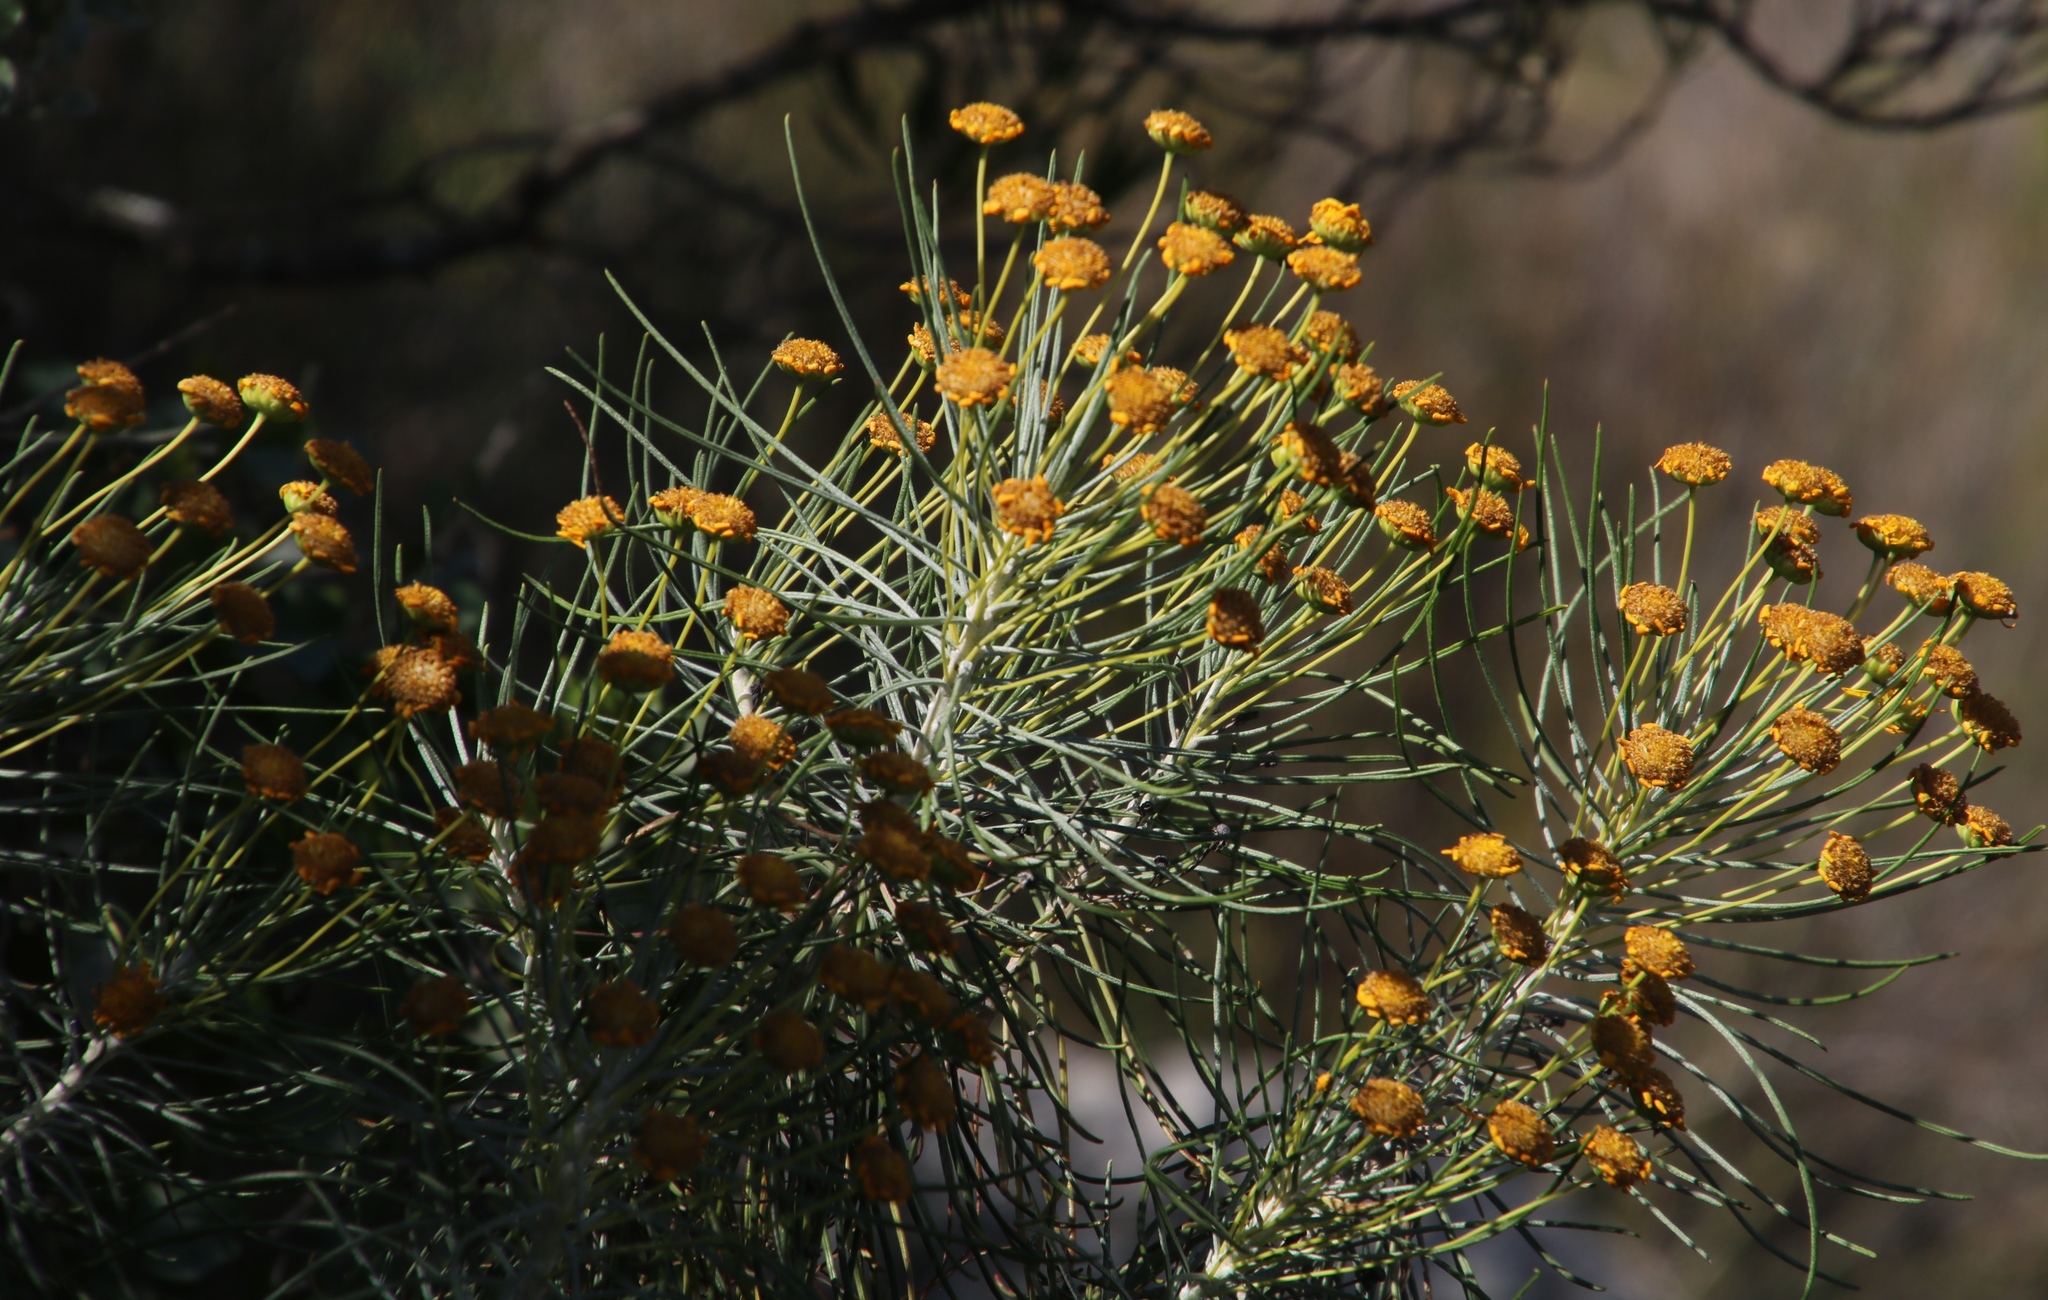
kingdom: Plantae
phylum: Tracheophyta
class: Magnoliopsida
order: Asterales
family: Asteraceae
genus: Euryops
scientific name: Euryops tenuissimus
